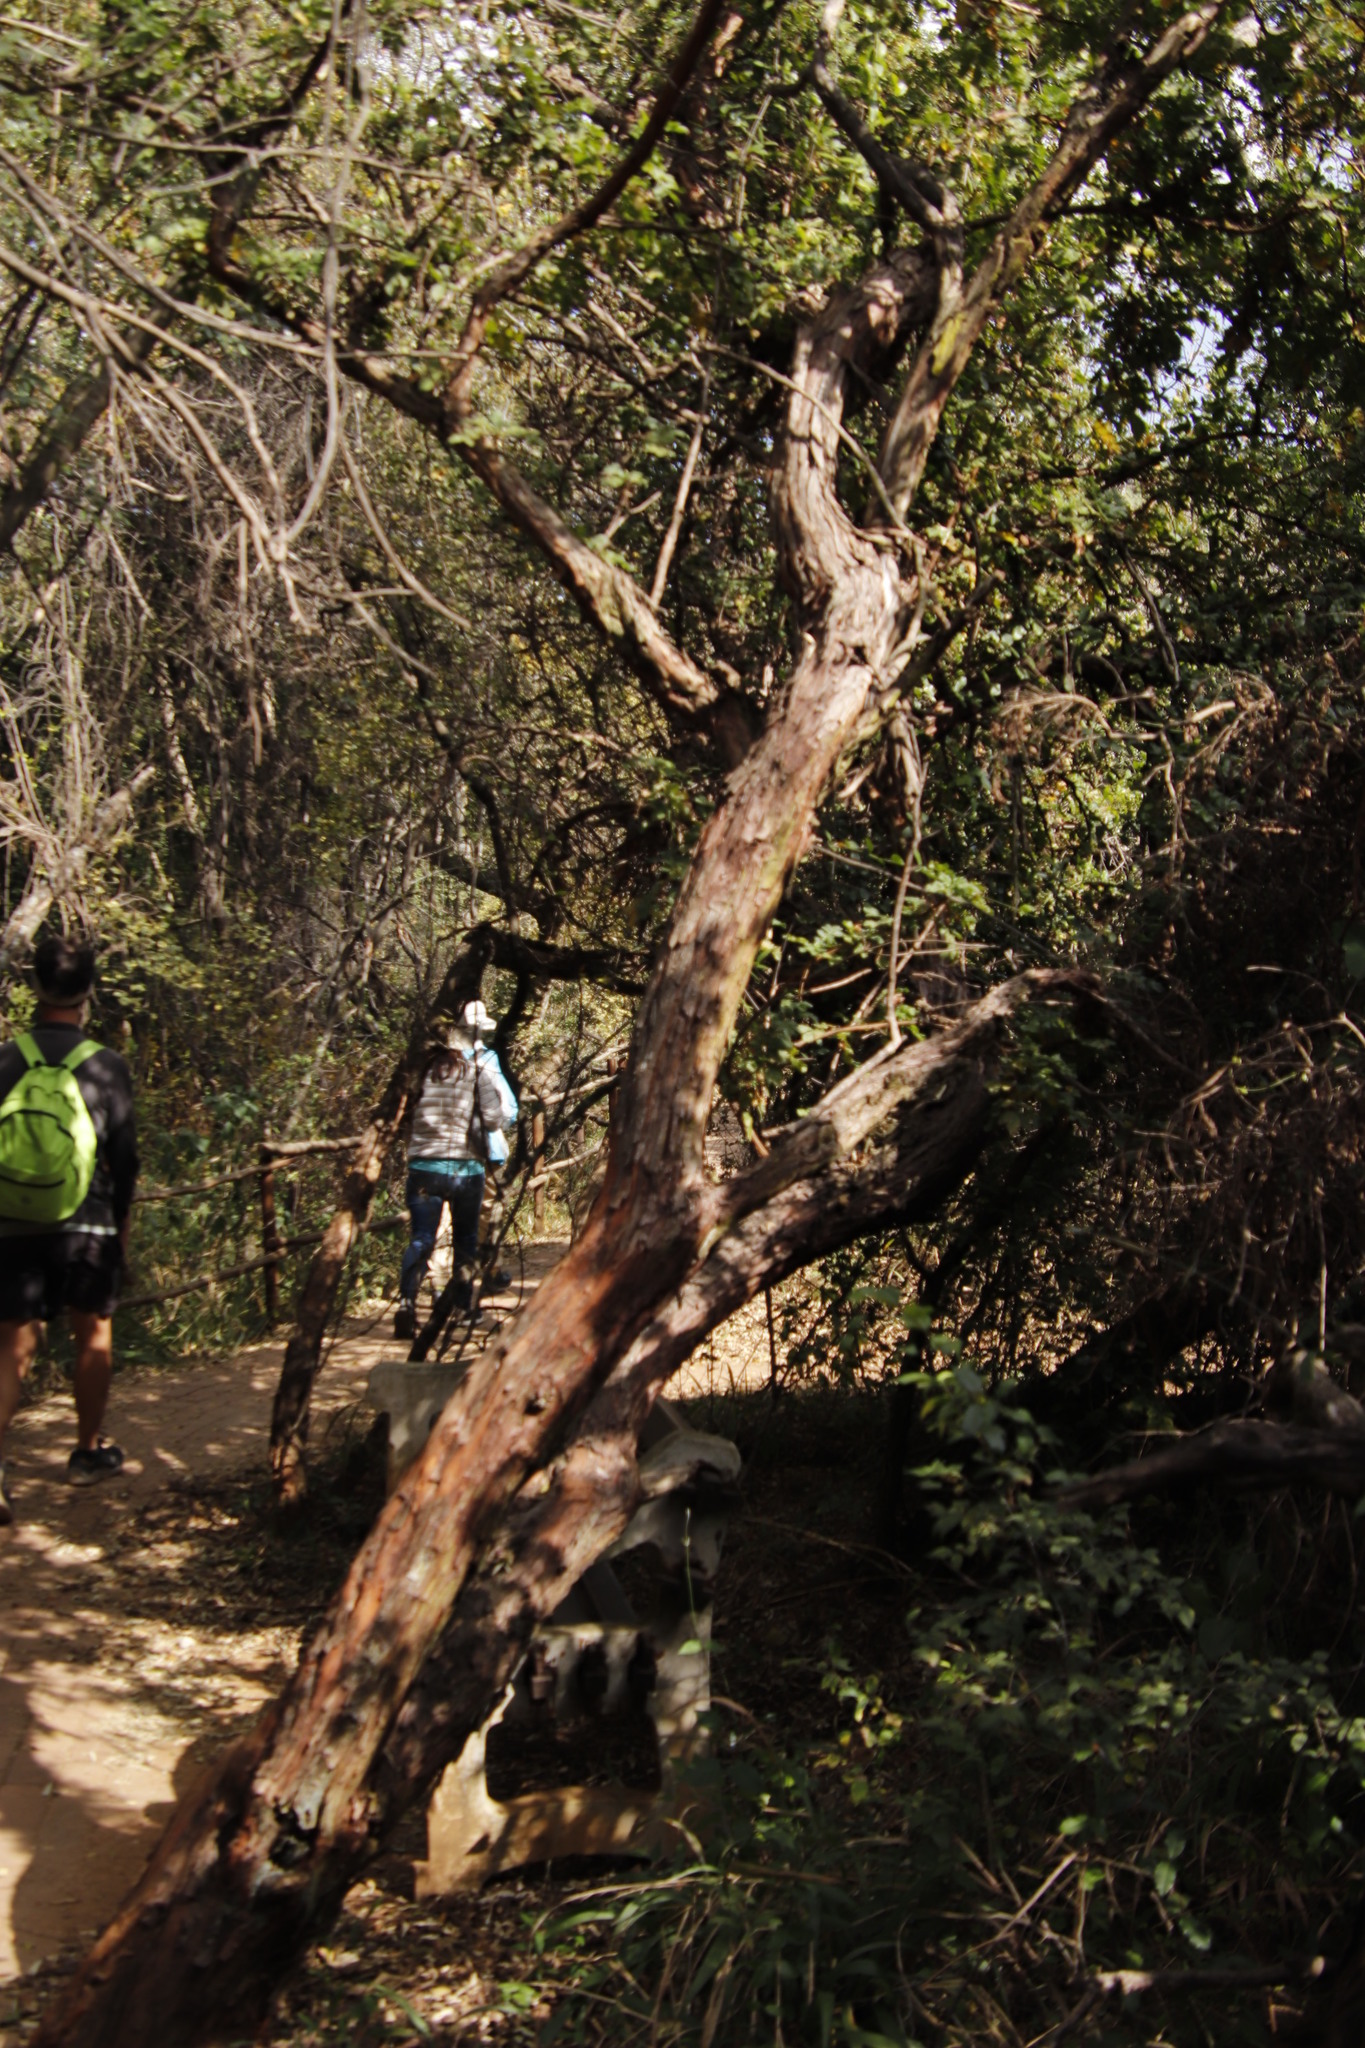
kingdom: Plantae
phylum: Tracheophyta
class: Magnoliopsida
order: Rosales
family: Rosaceae
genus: Leucosidea
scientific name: Leucosidea sericea
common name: Oldwood
